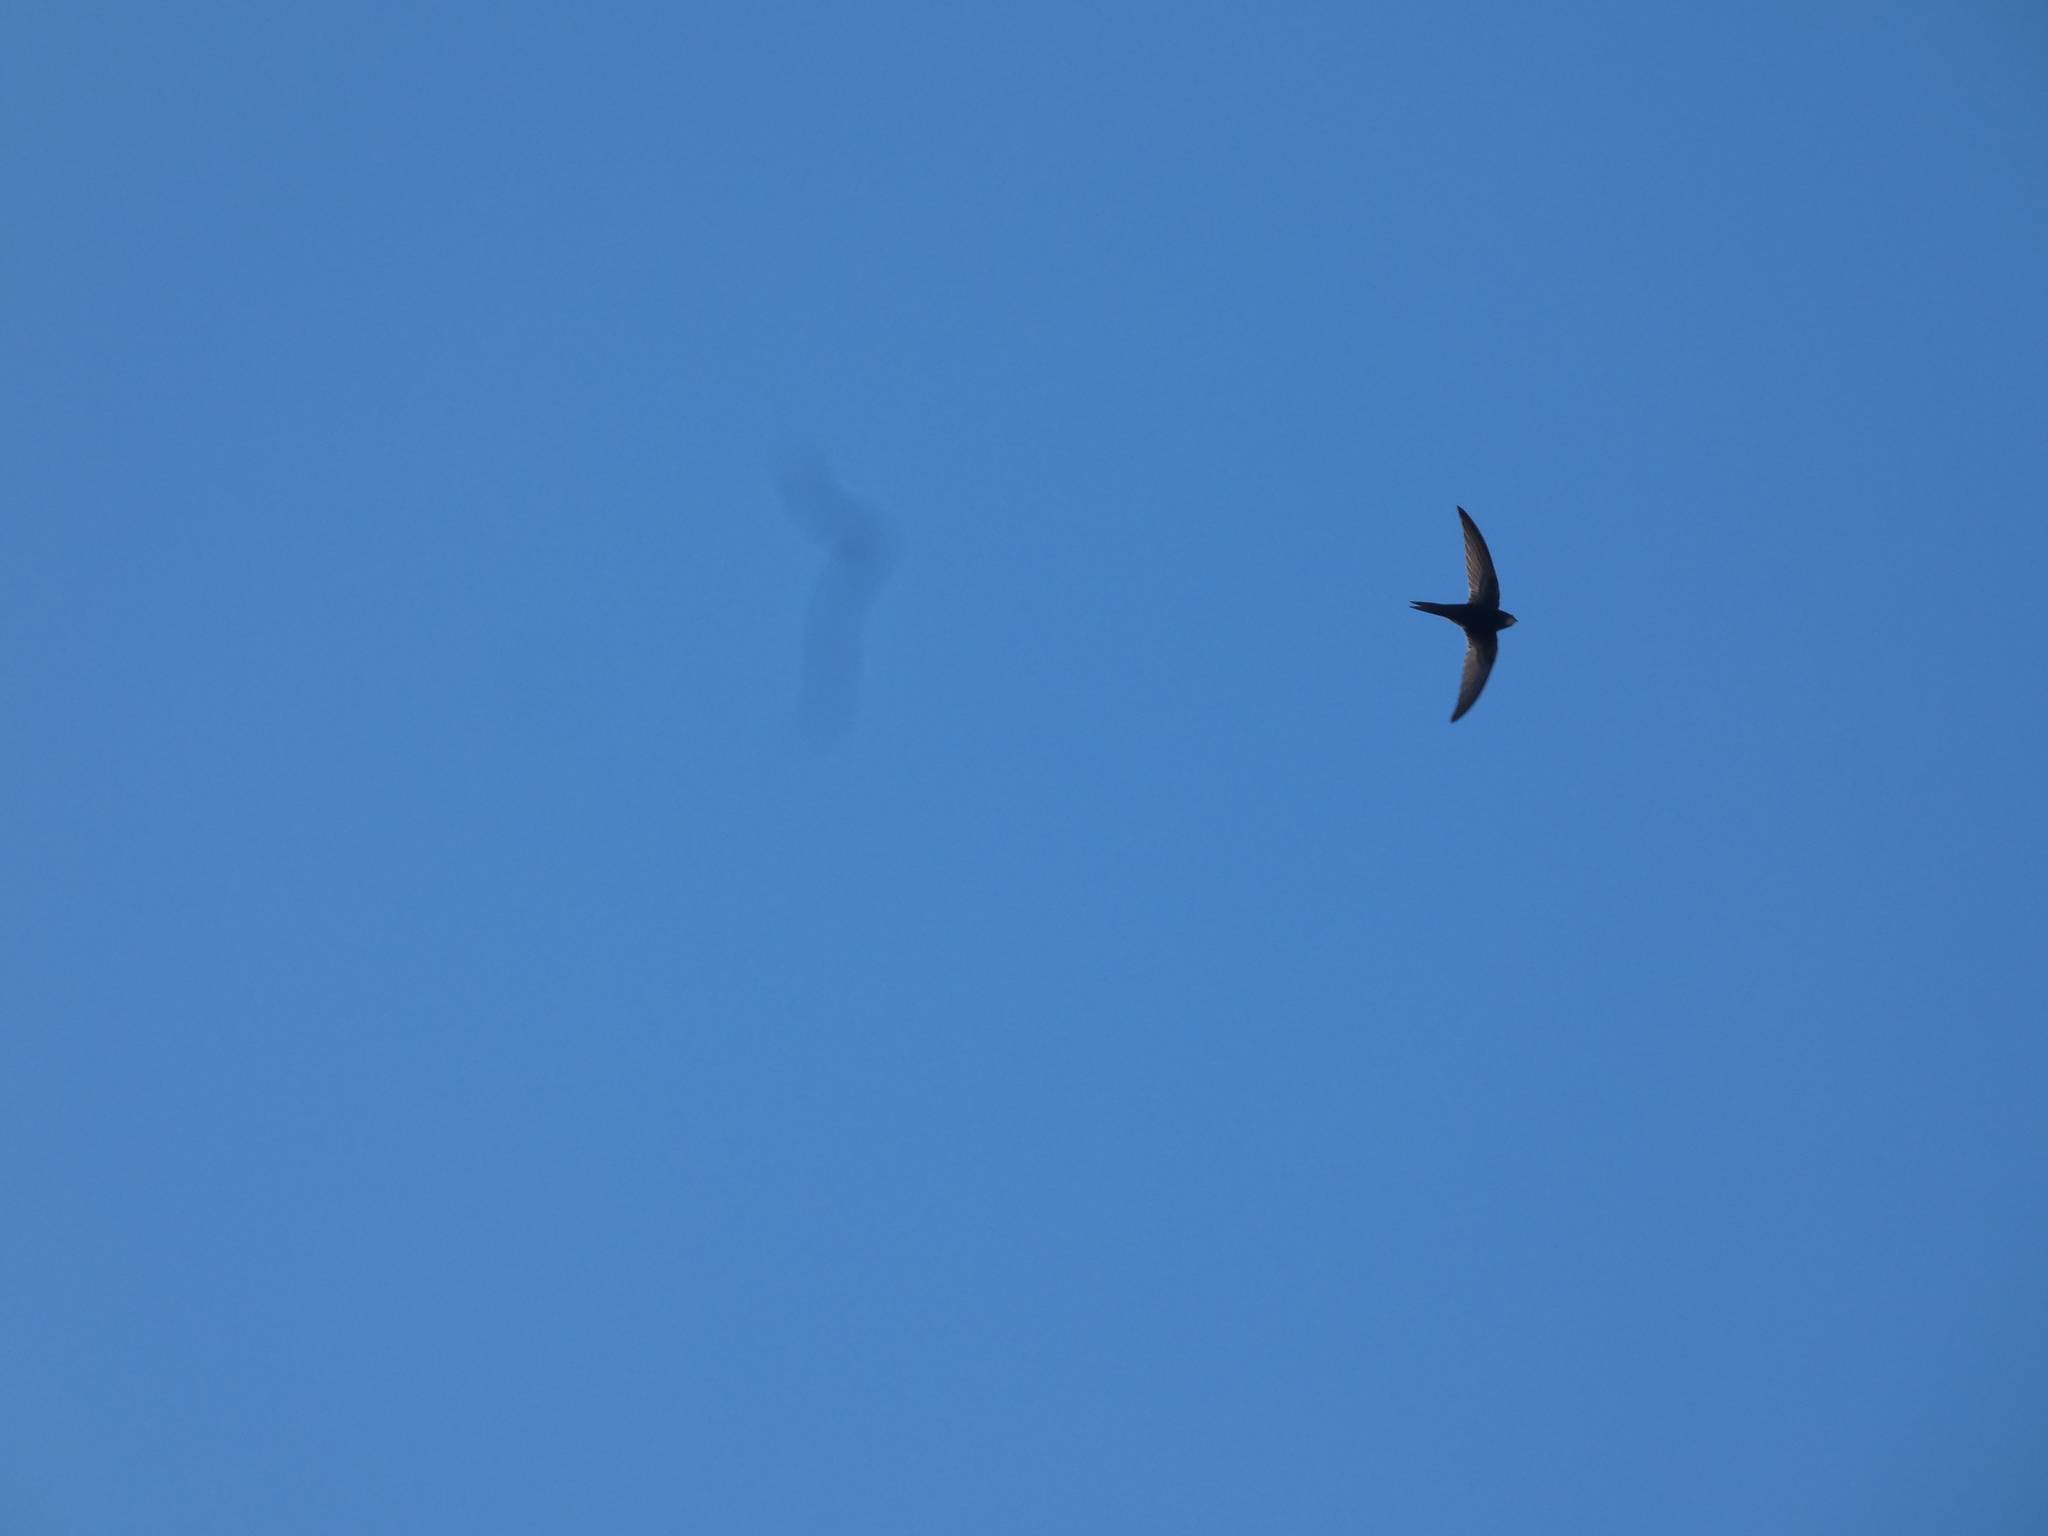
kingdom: Animalia
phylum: Chordata
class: Aves
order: Apodiformes
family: Apodidae
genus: Apus
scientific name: Apus apus
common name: Common swift
